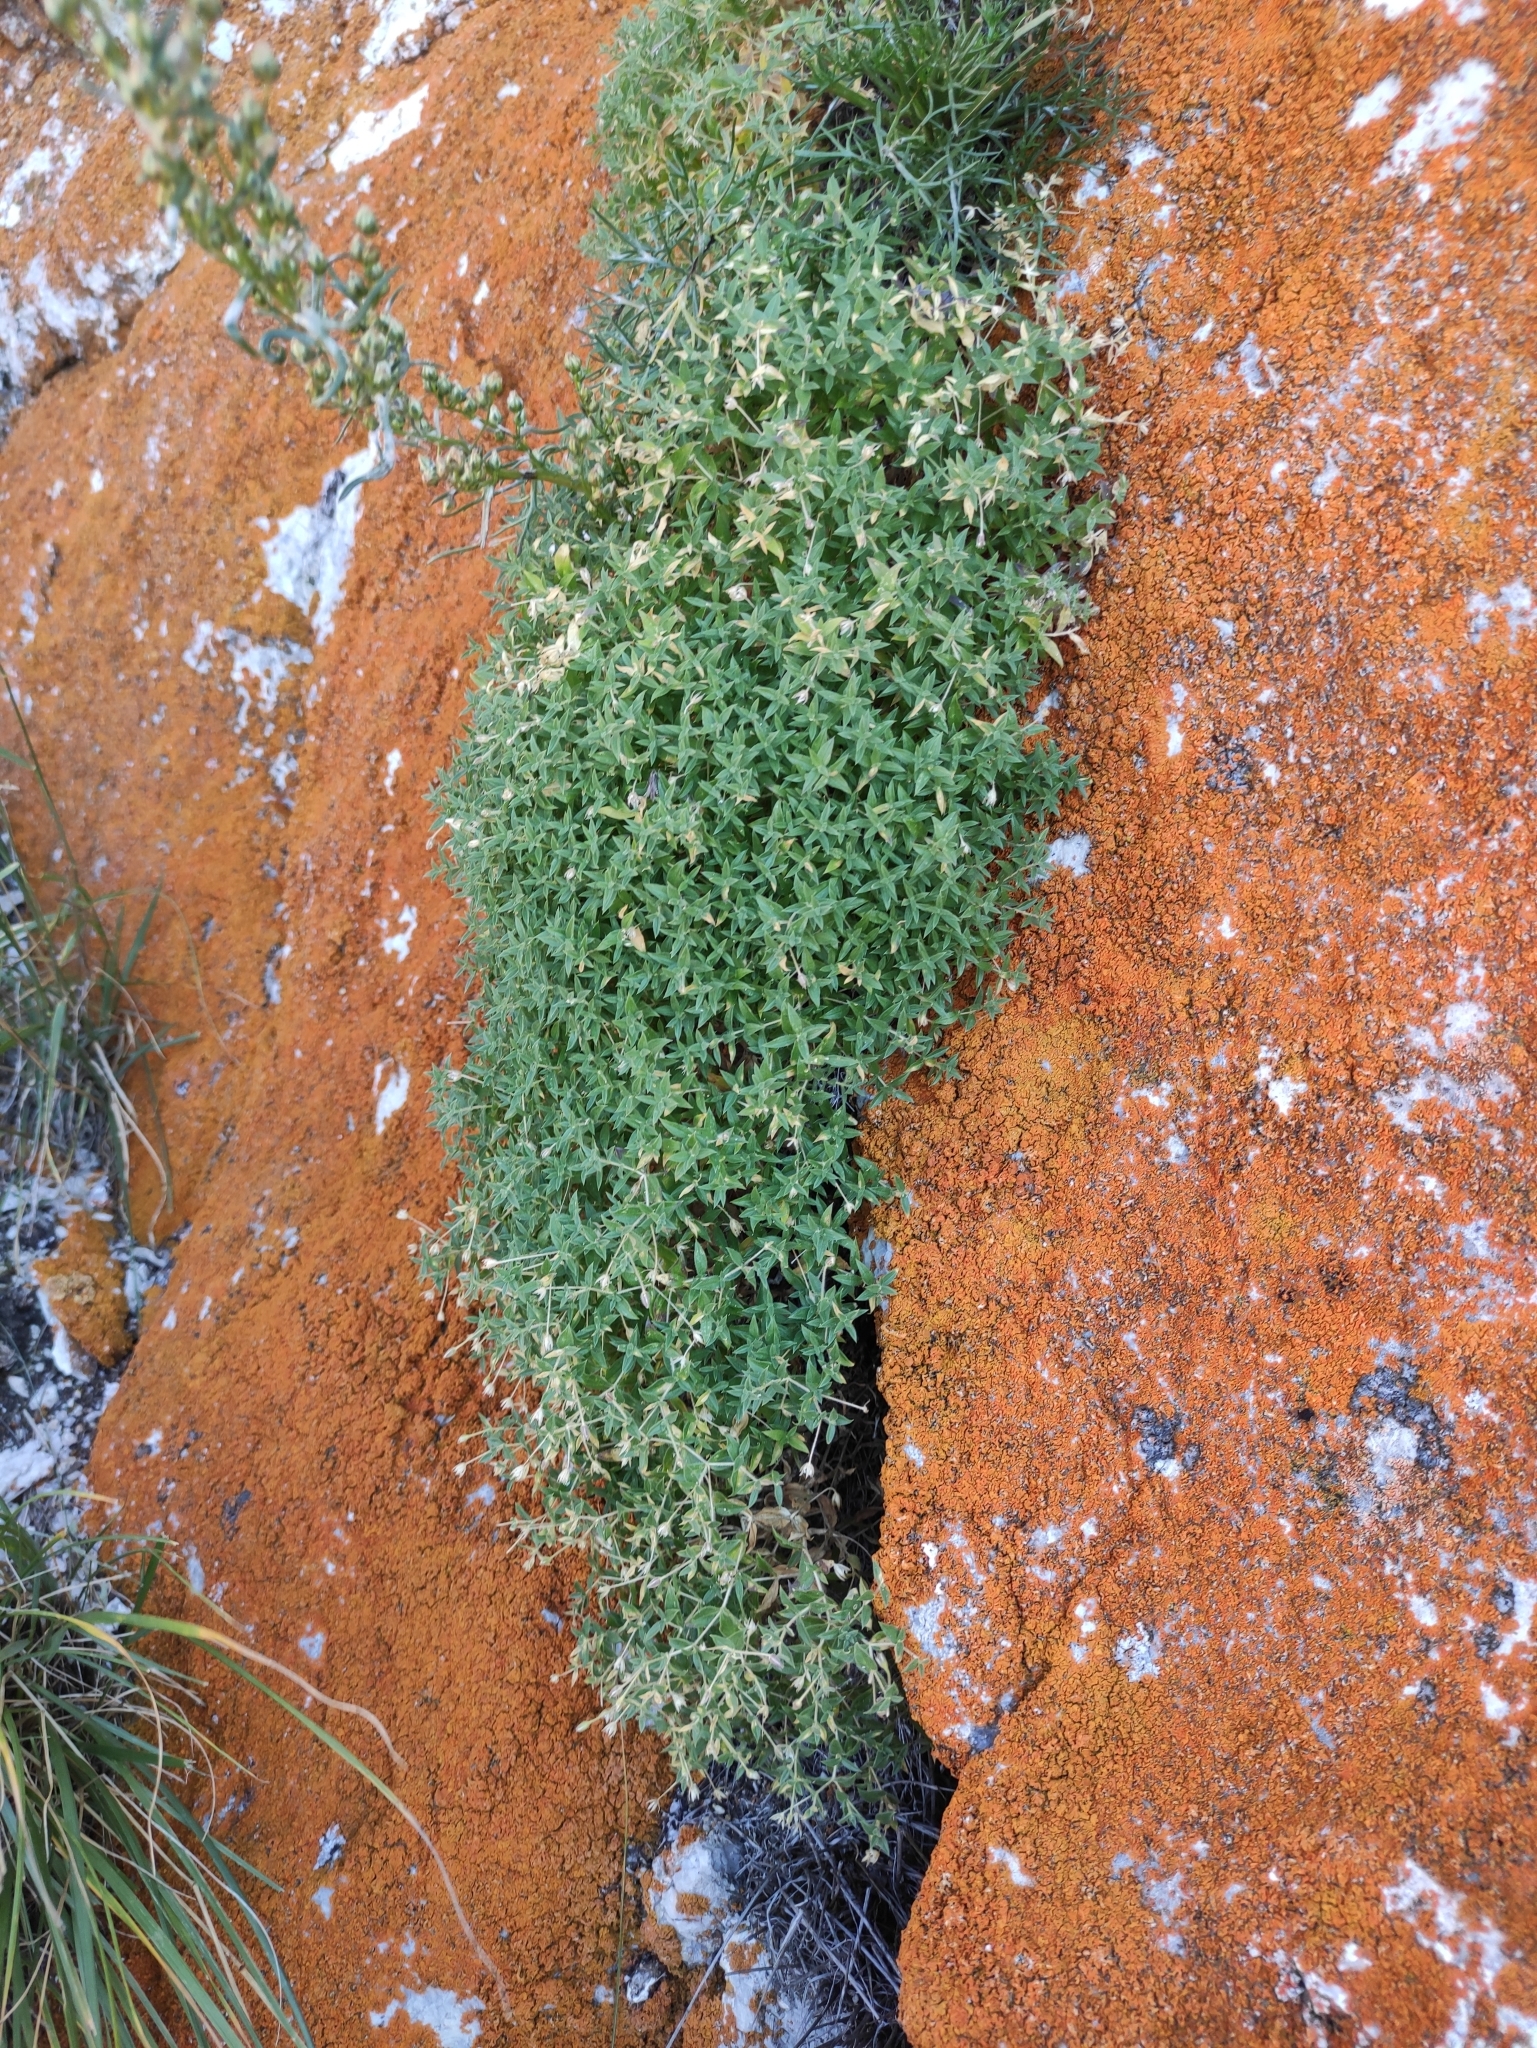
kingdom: Plantae
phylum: Tracheophyta
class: Magnoliopsida
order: Caryophyllales
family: Caryophyllaceae
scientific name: Caryophyllaceae
